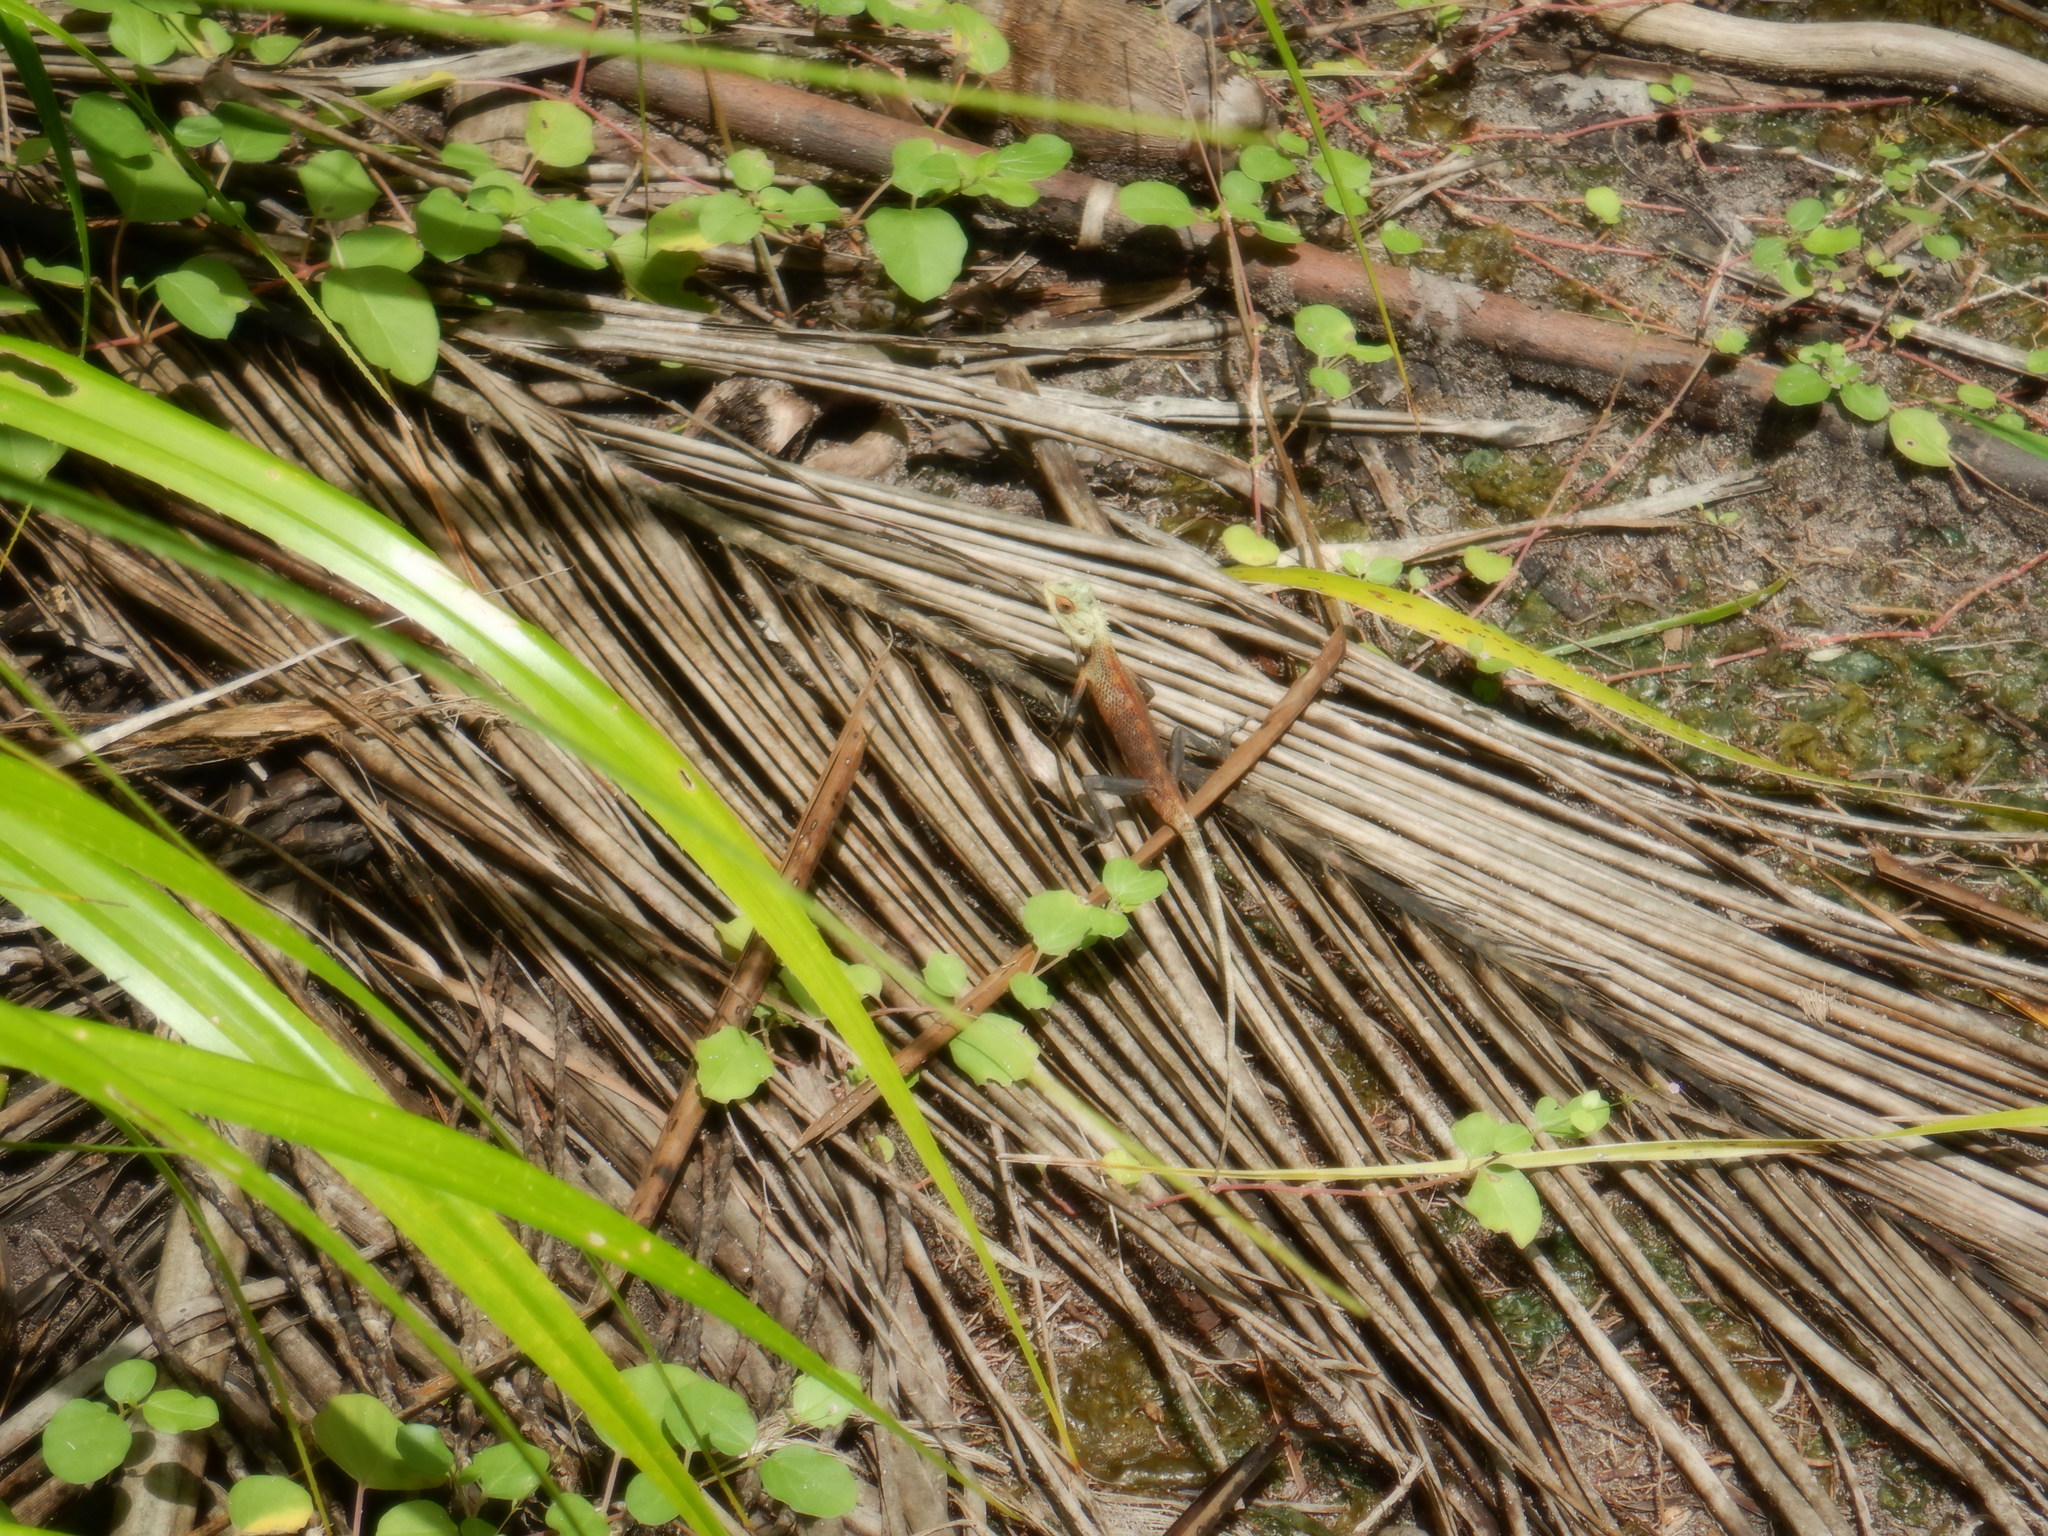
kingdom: Animalia
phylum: Chordata
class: Squamata
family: Agamidae
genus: Calotes
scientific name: Calotes versicolor
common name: Oriental garden lizard
